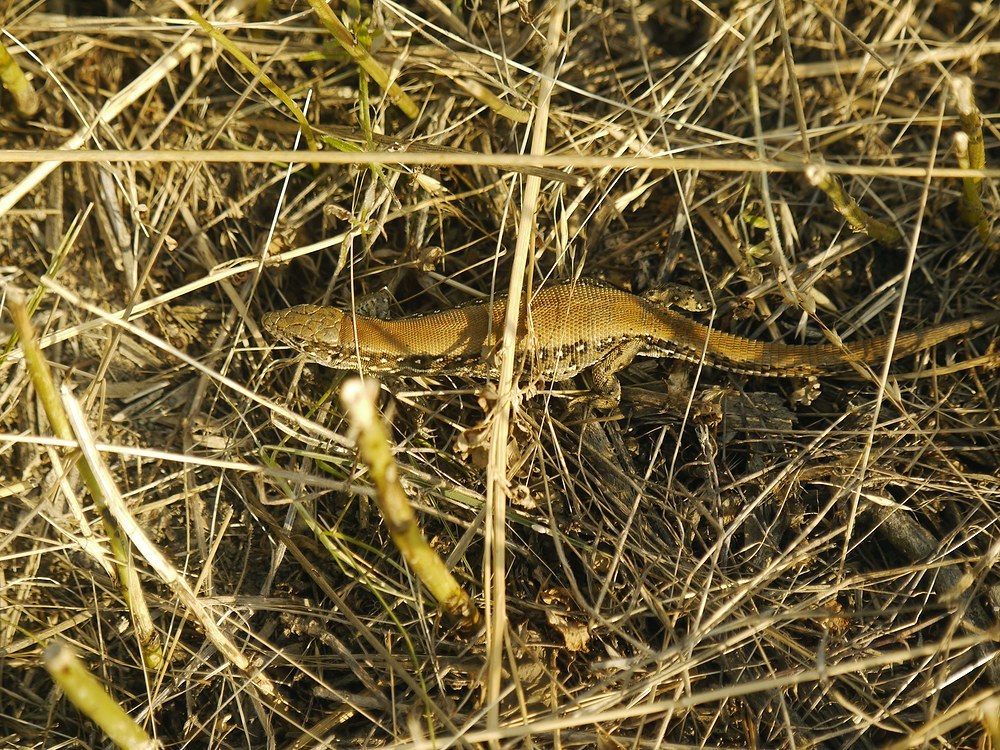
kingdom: Animalia
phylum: Chordata
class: Squamata
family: Lacertidae
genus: Lacerta
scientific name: Lacerta agilis
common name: Sand lizard
